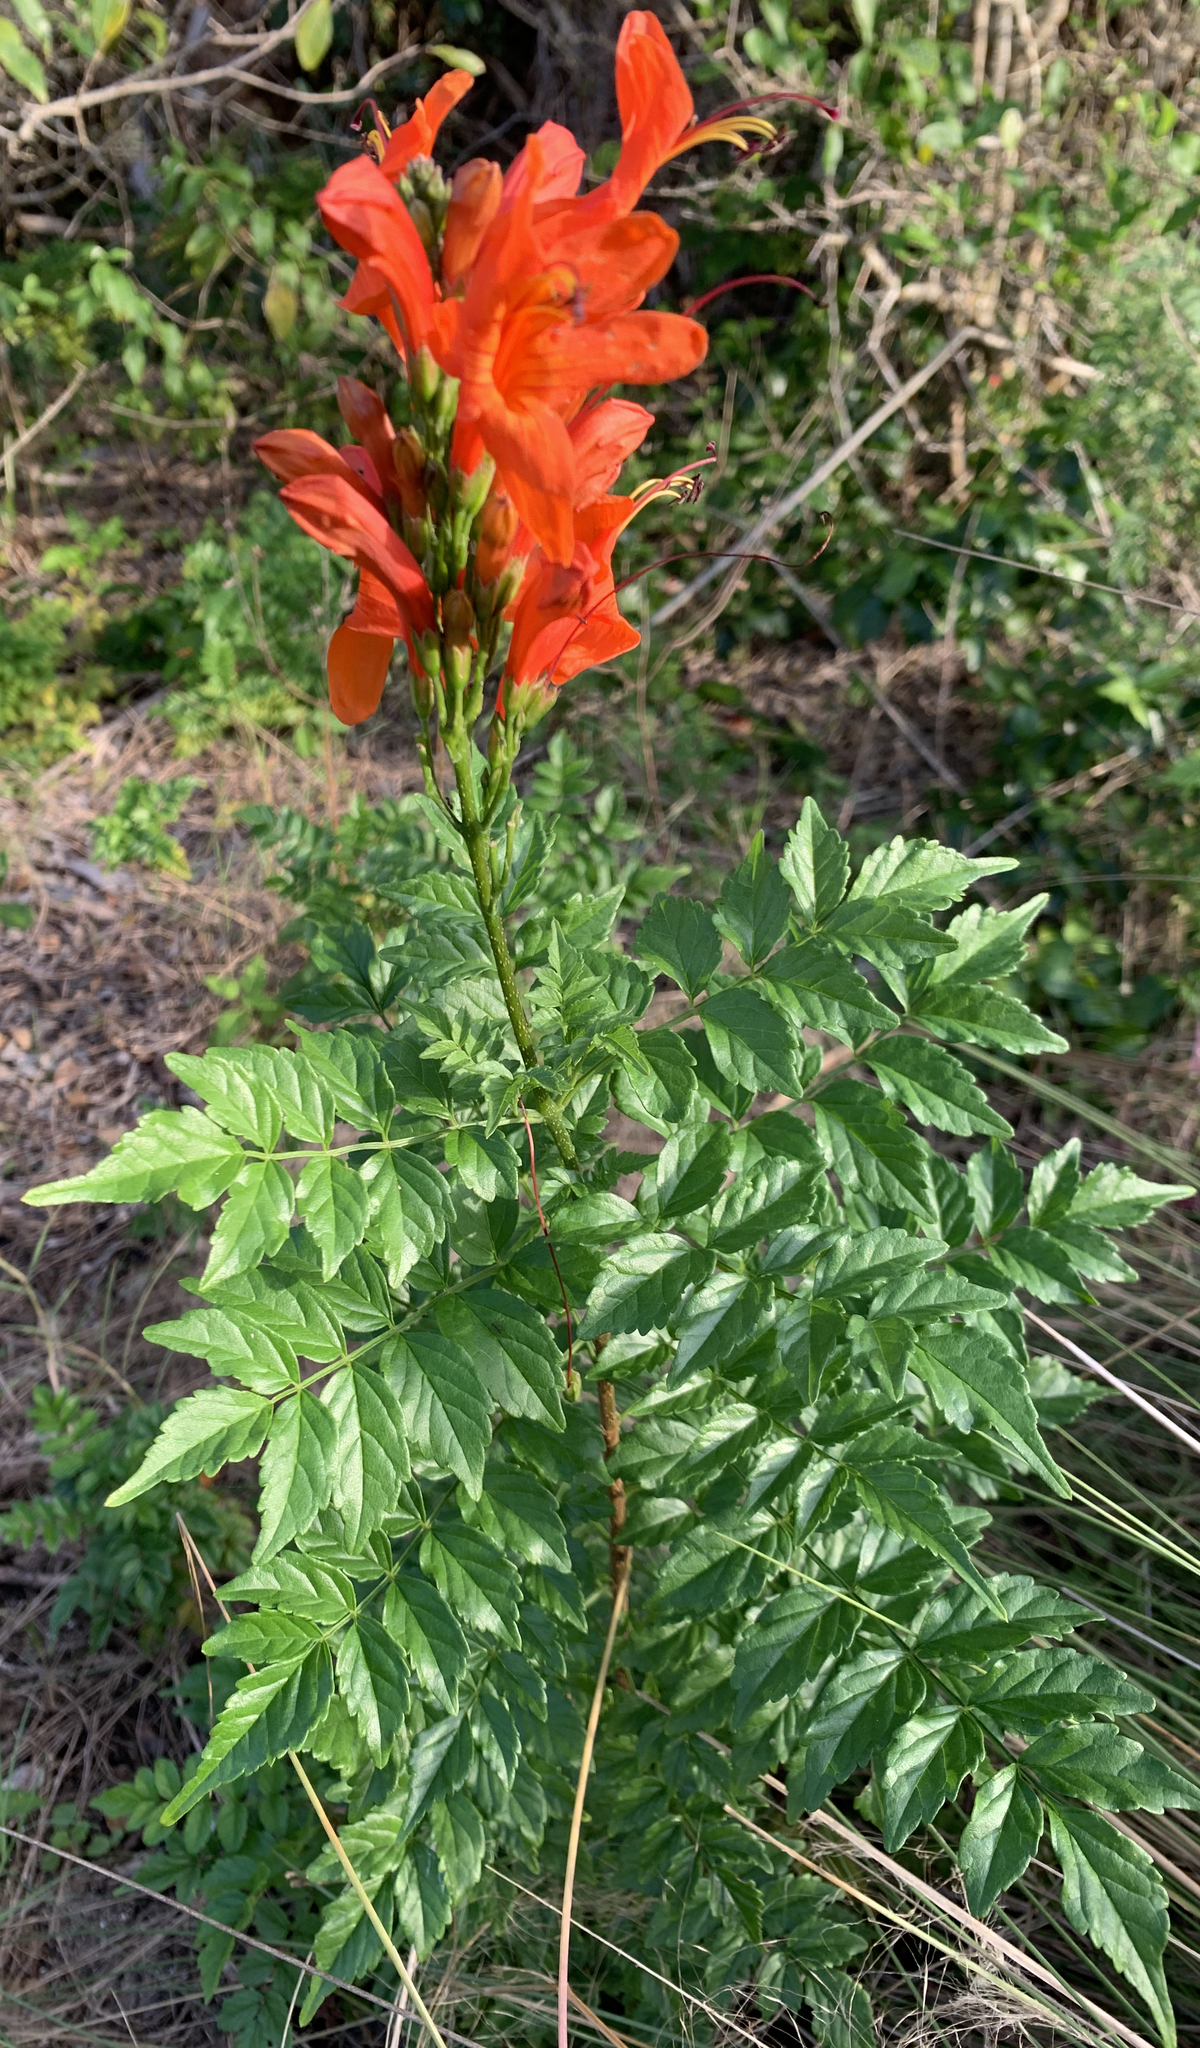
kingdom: Plantae
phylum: Tracheophyta
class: Magnoliopsida
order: Lamiales
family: Bignoniaceae
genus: Tecomaria
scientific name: Tecomaria capensis
